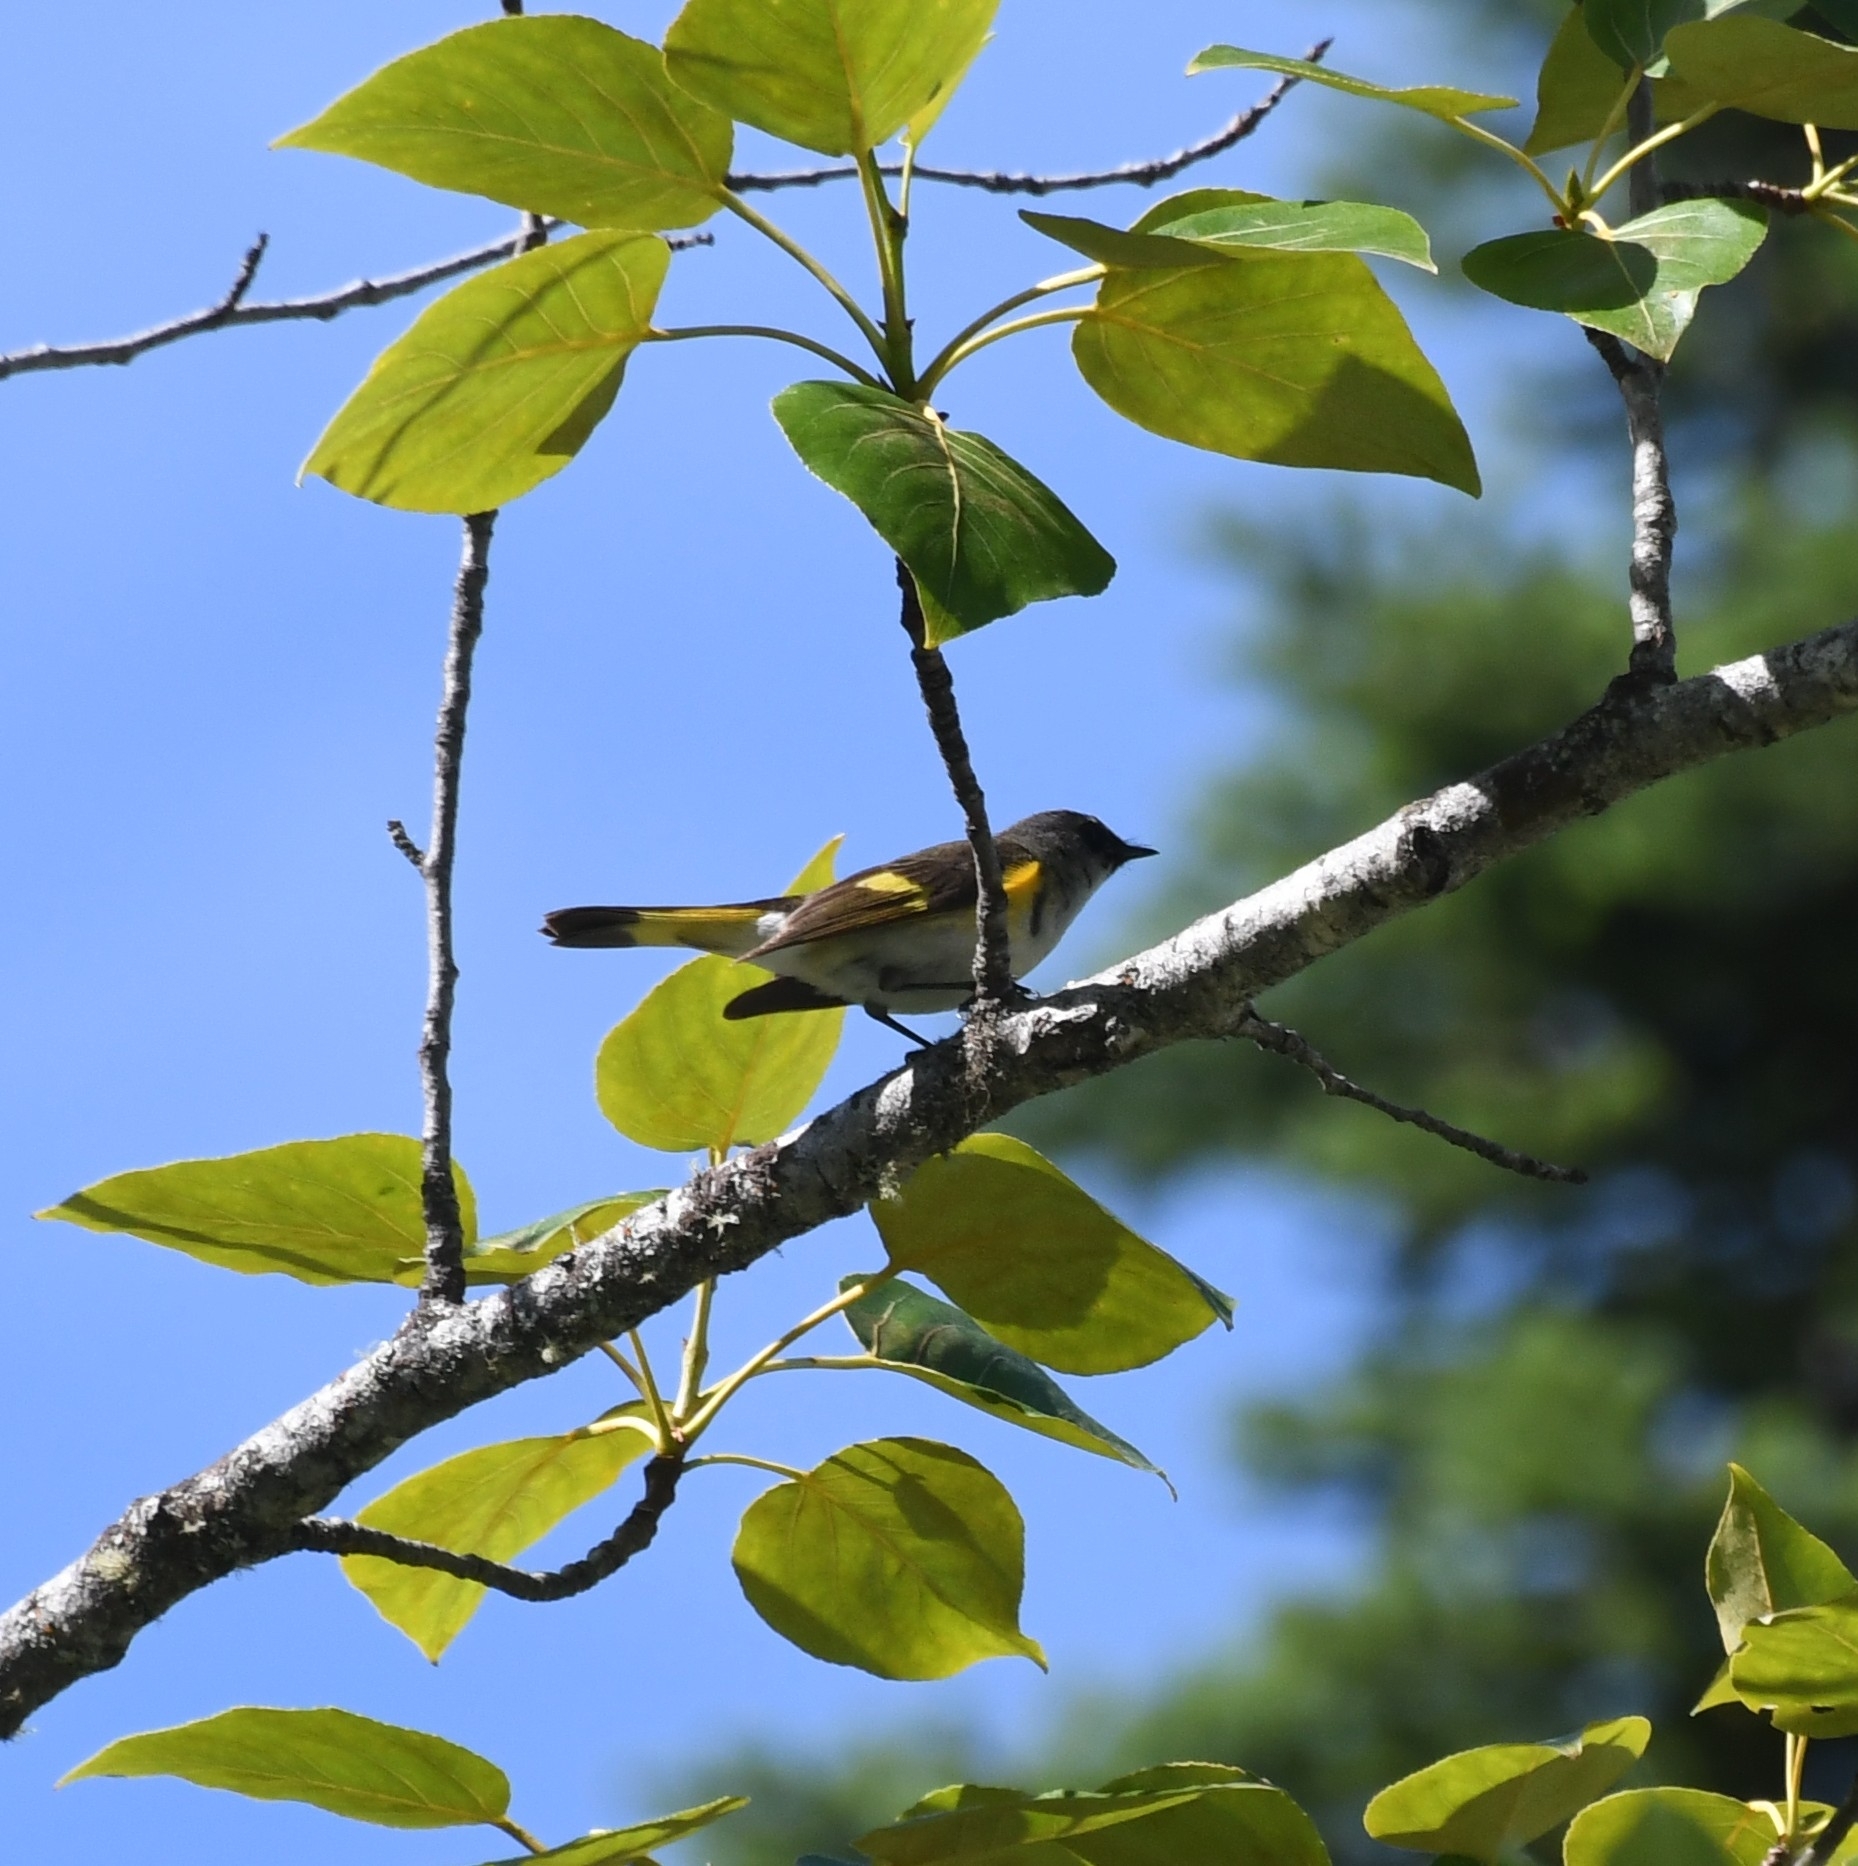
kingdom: Animalia
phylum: Chordata
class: Aves
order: Passeriformes
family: Parulidae
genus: Setophaga
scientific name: Setophaga ruticilla
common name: American redstart
